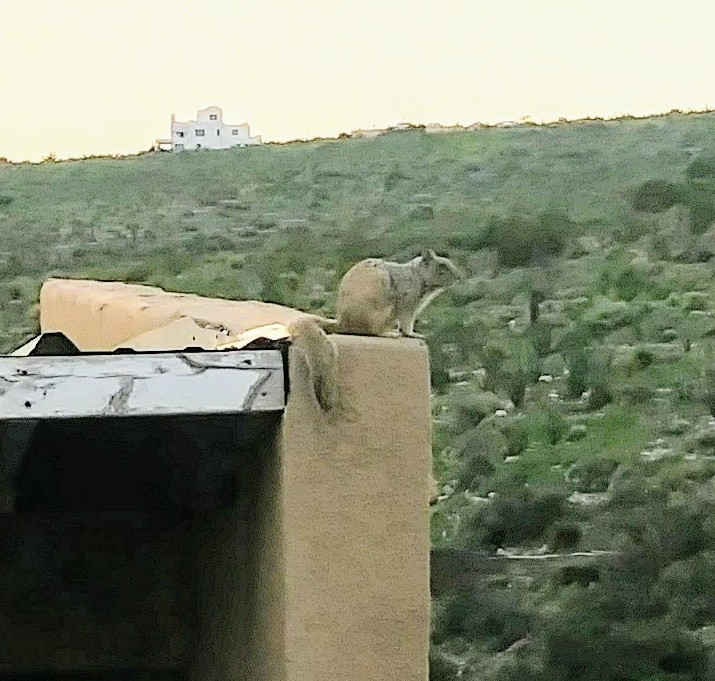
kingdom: Animalia
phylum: Chordata
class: Mammalia
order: Rodentia
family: Sciuridae
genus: Otospermophilus
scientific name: Otospermophilus variegatus
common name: Rock squirrel
